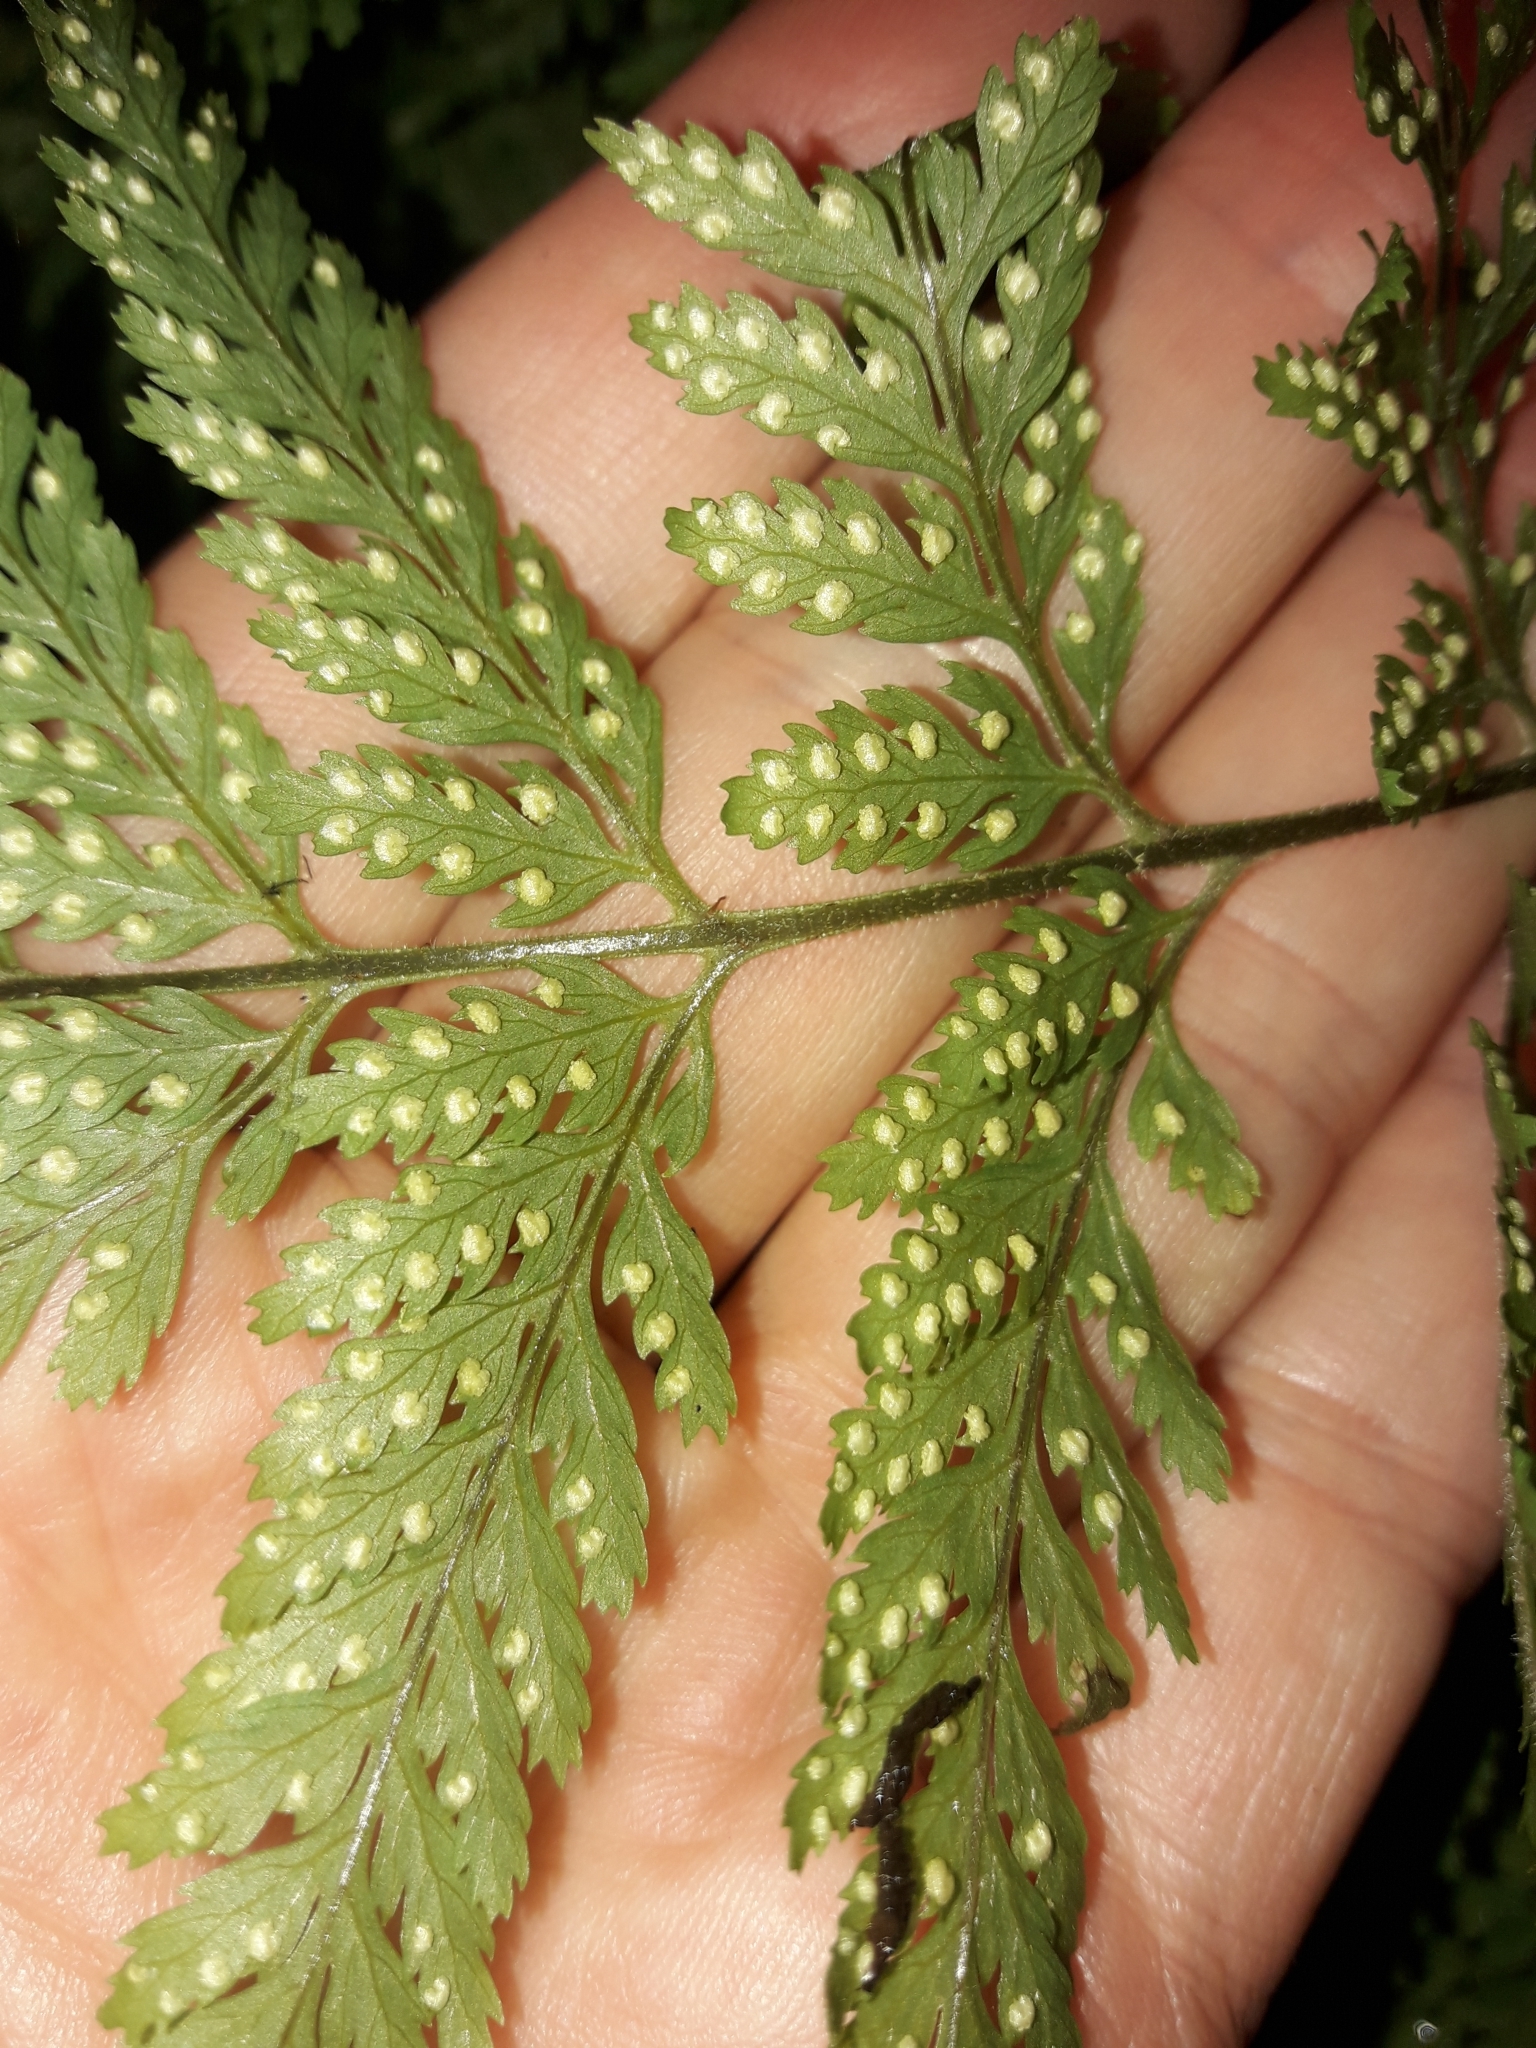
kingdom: Plantae
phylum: Tracheophyta
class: Polypodiopsida
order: Polypodiales
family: Dryopteridaceae
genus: Parapolystichum
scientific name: Parapolystichum microsorum
